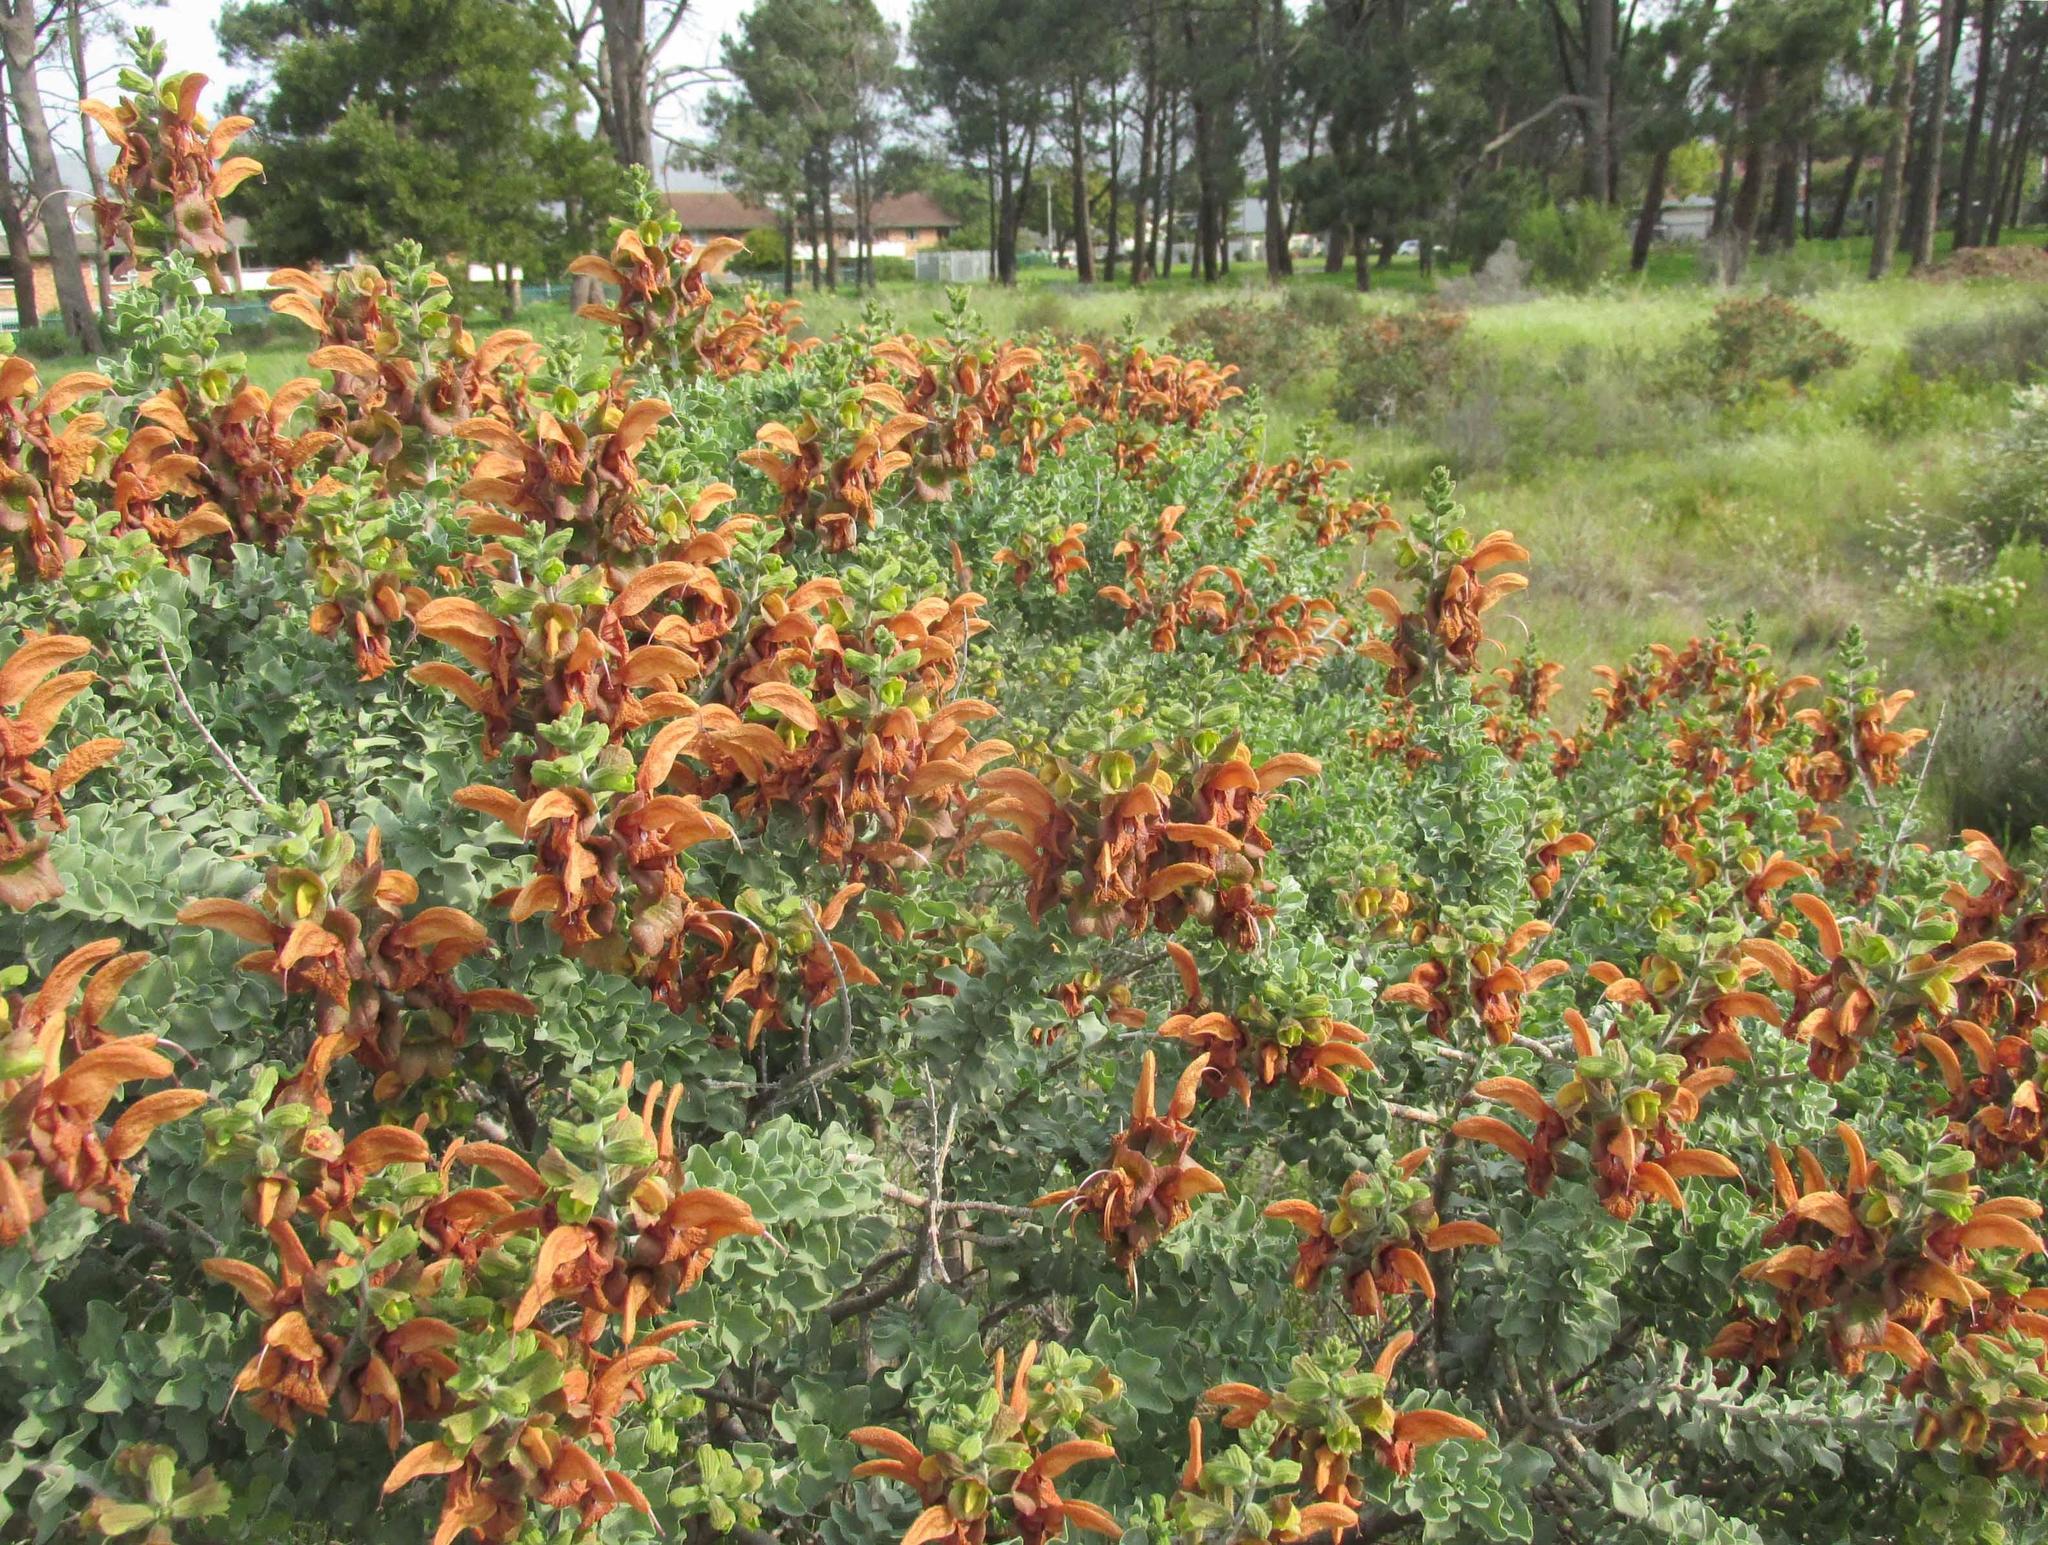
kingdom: Plantae
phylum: Tracheophyta
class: Magnoliopsida
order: Lamiales
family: Lamiaceae
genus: Salvia
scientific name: Salvia aurea
